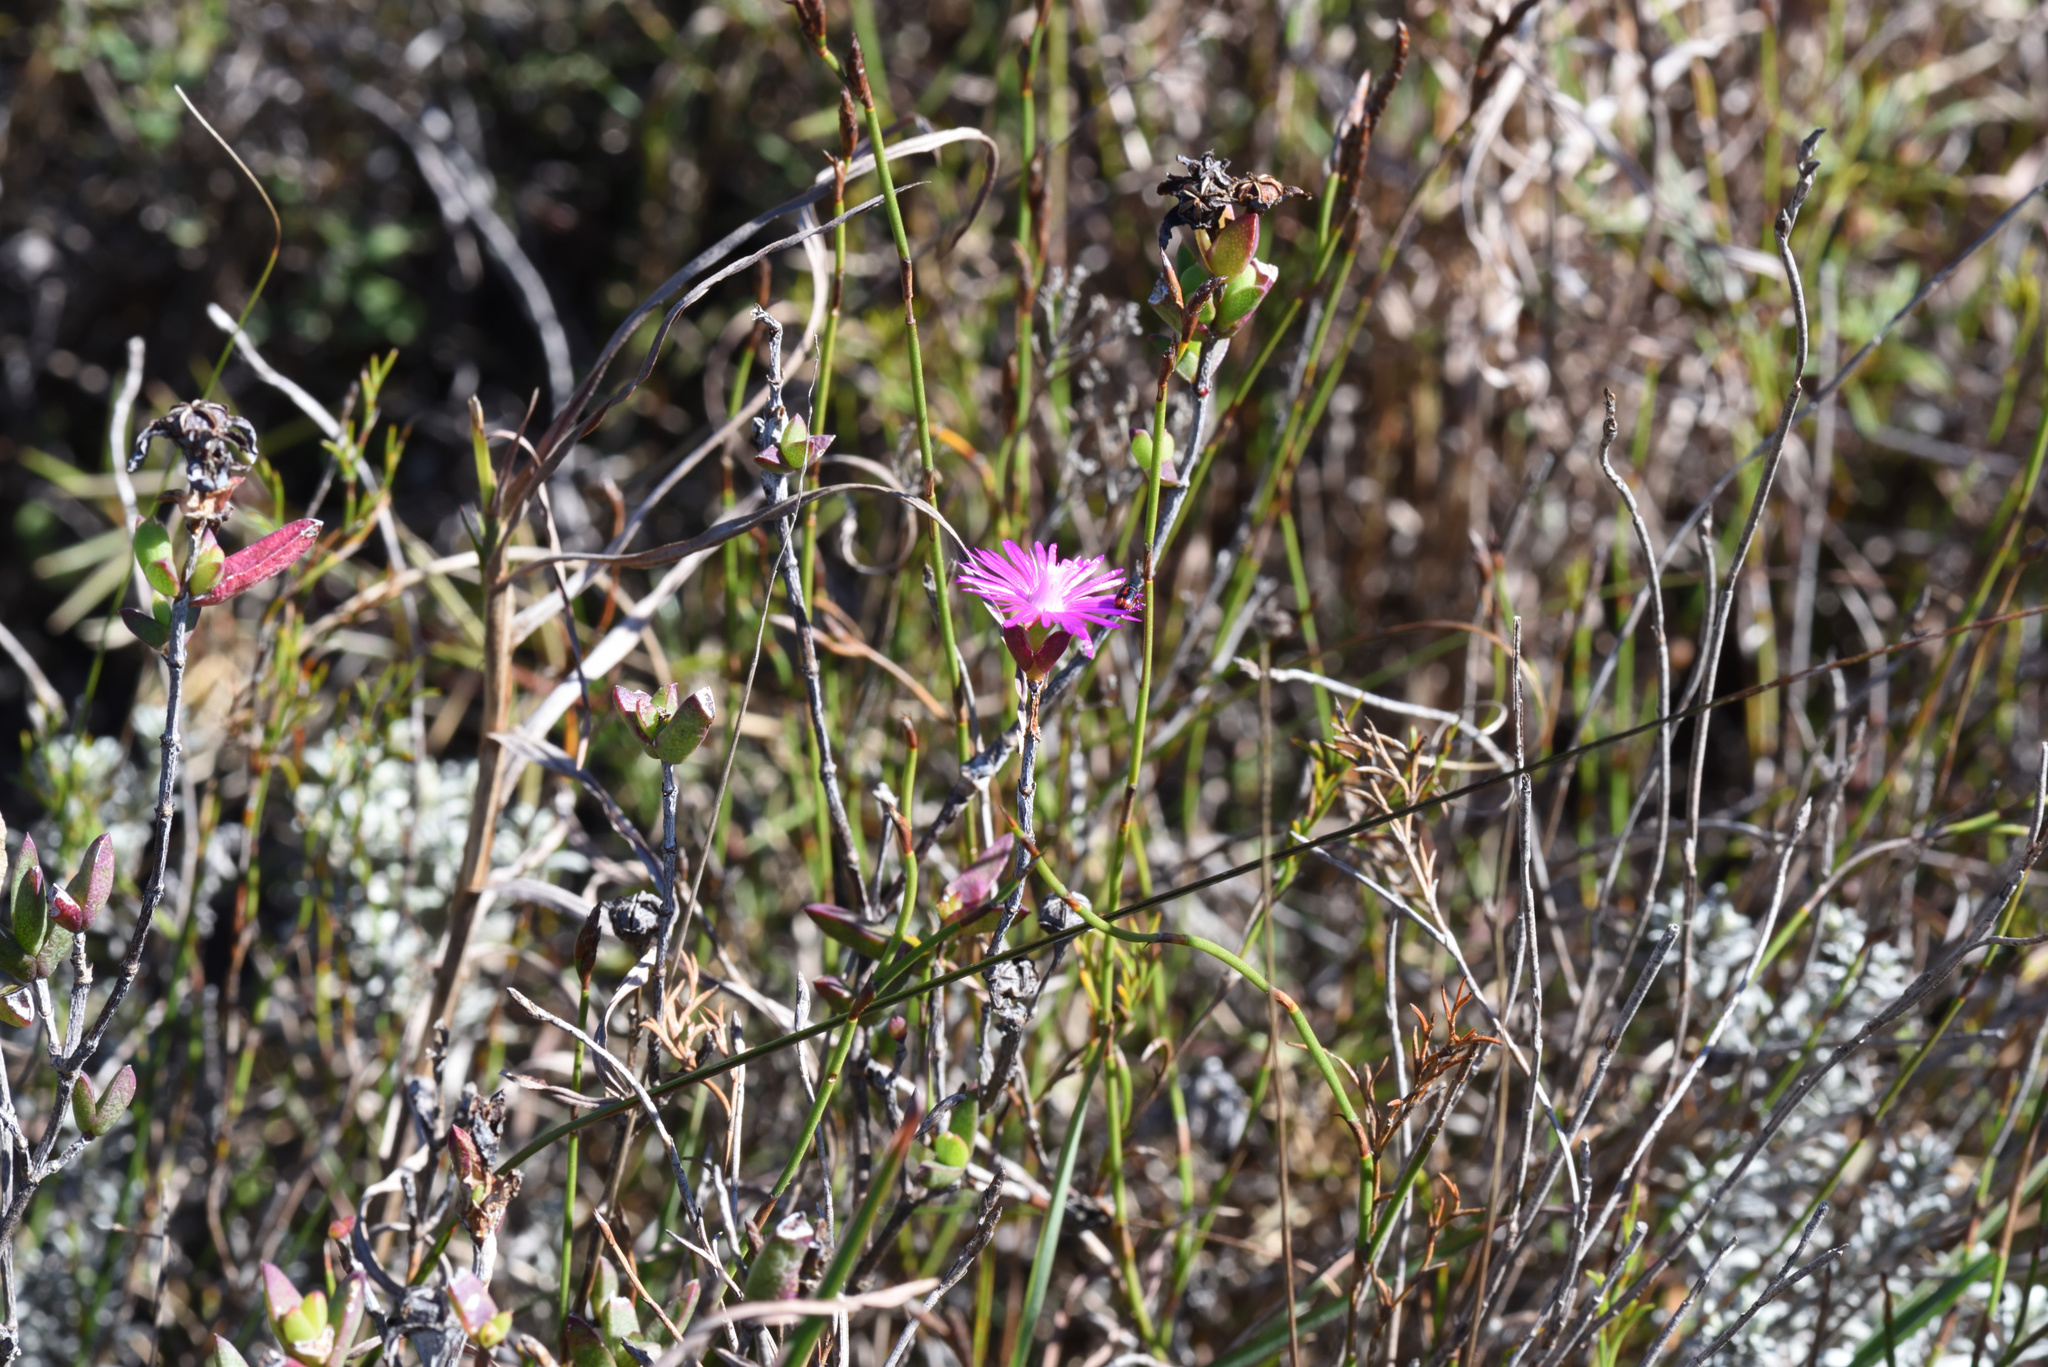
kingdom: Plantae
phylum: Tracheophyta
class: Magnoliopsida
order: Caryophyllales
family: Aizoaceae
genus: Esterhuysenia
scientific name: Esterhuysenia knysnana
